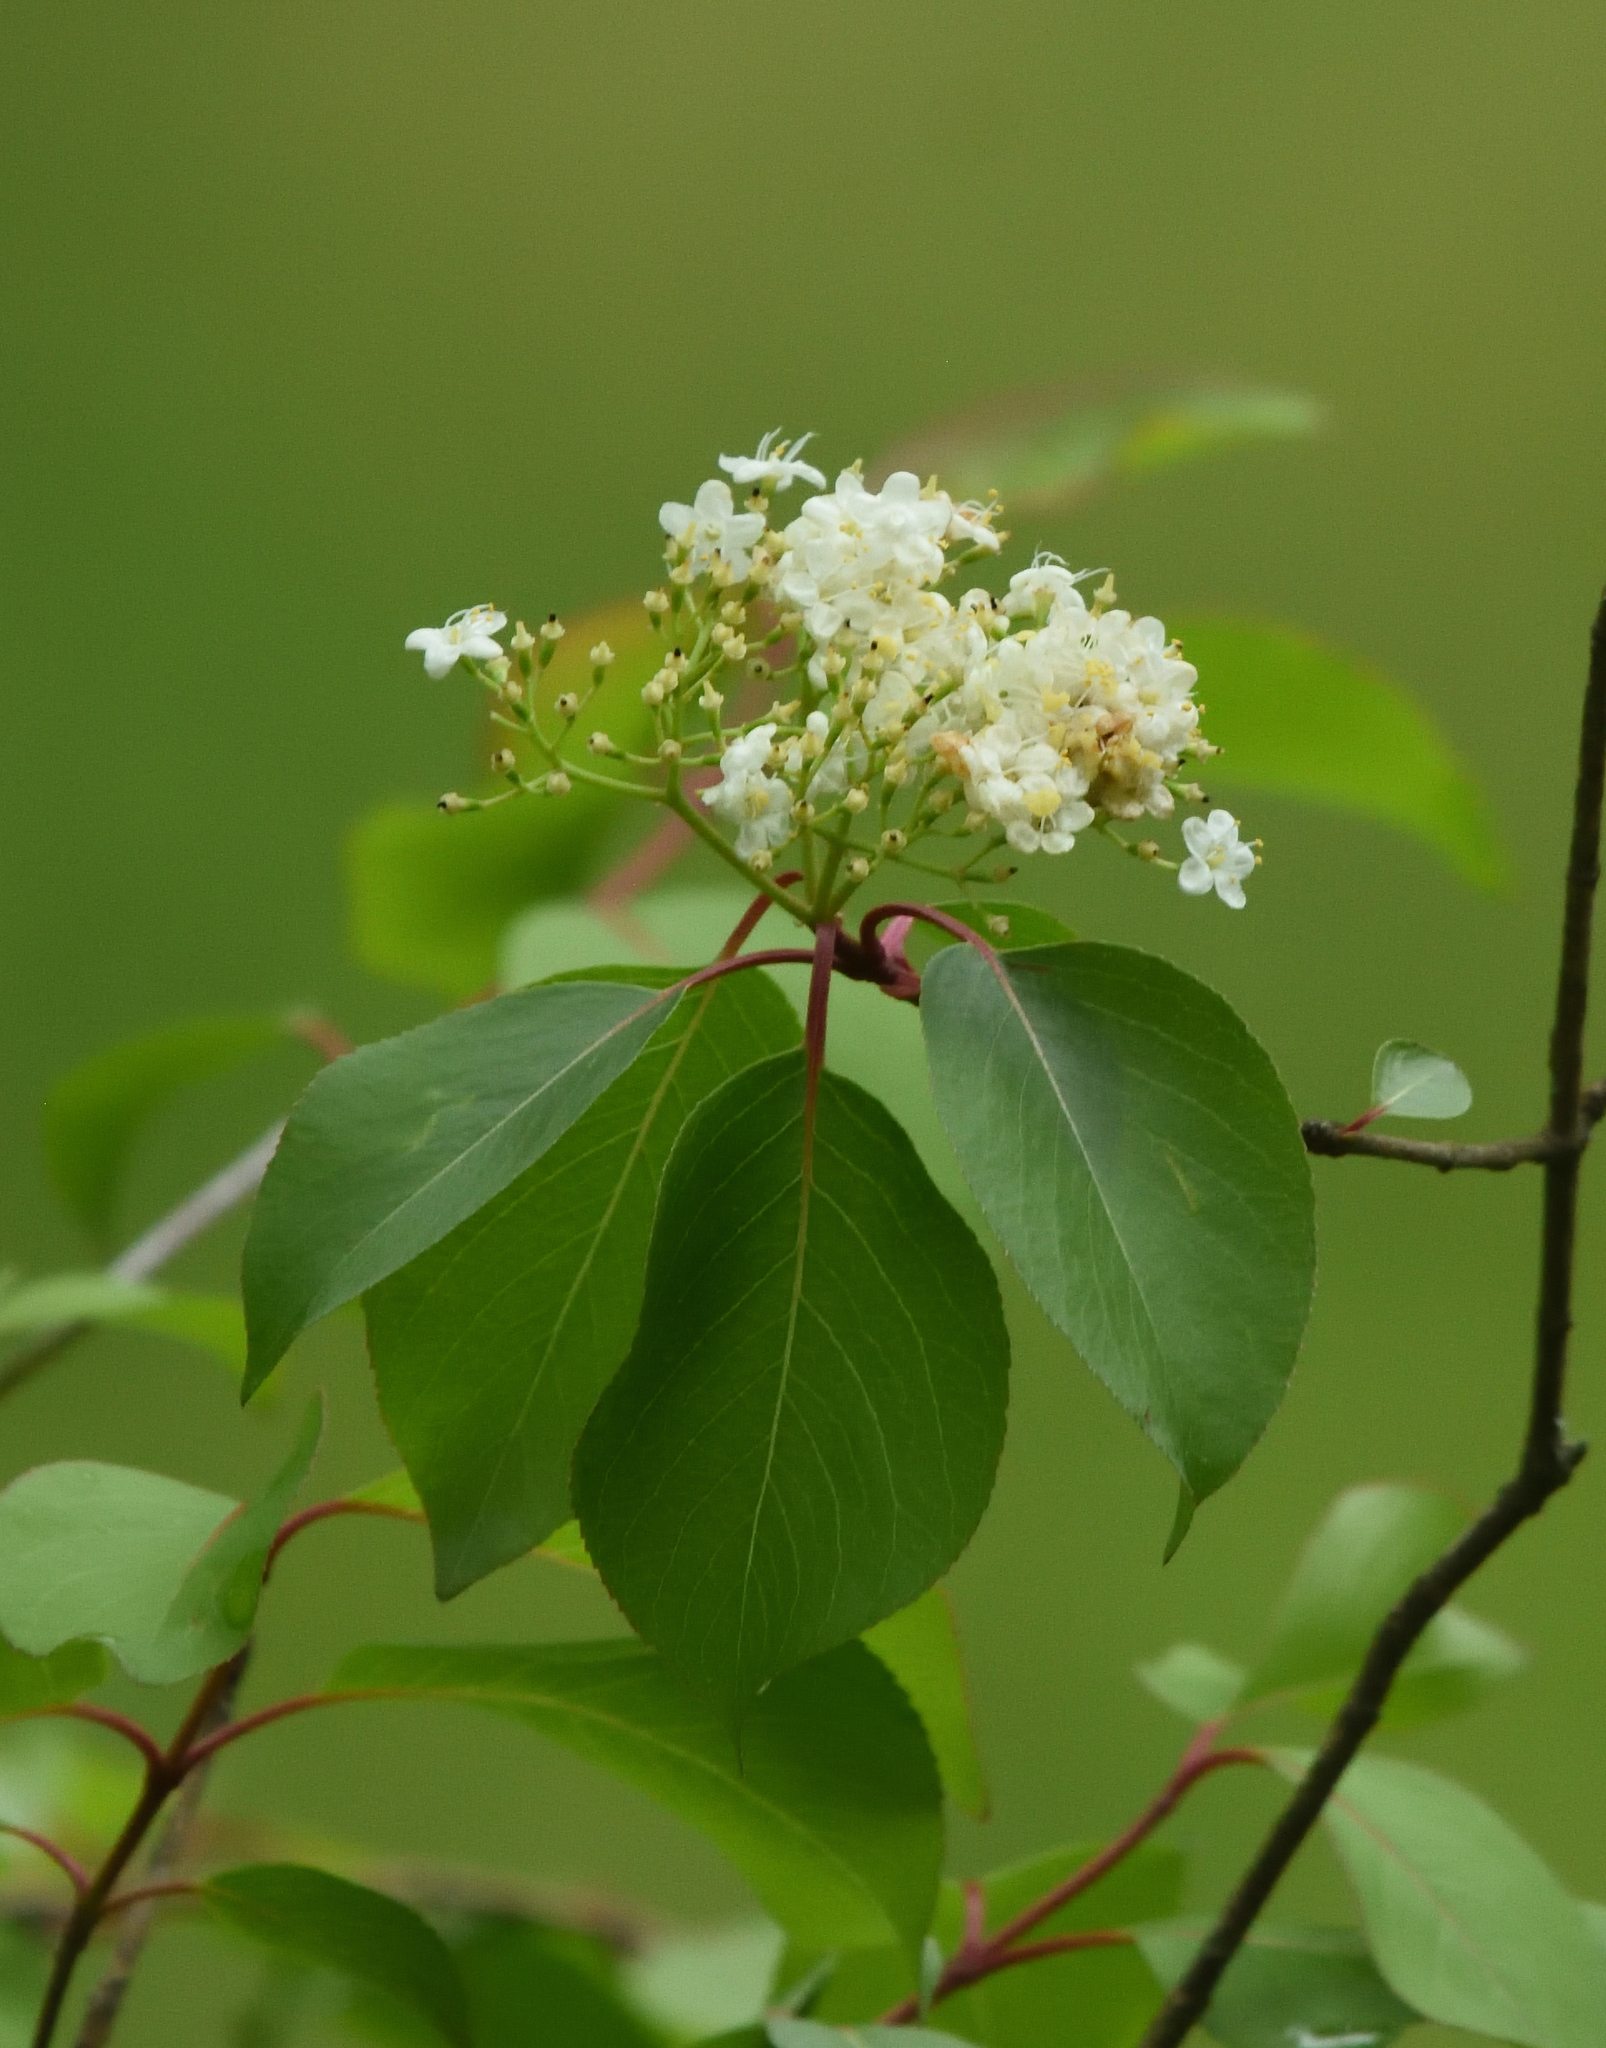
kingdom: Plantae
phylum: Tracheophyta
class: Magnoliopsida
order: Dipsacales
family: Viburnaceae
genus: Viburnum
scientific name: Viburnum prunifolium
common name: Black haw
